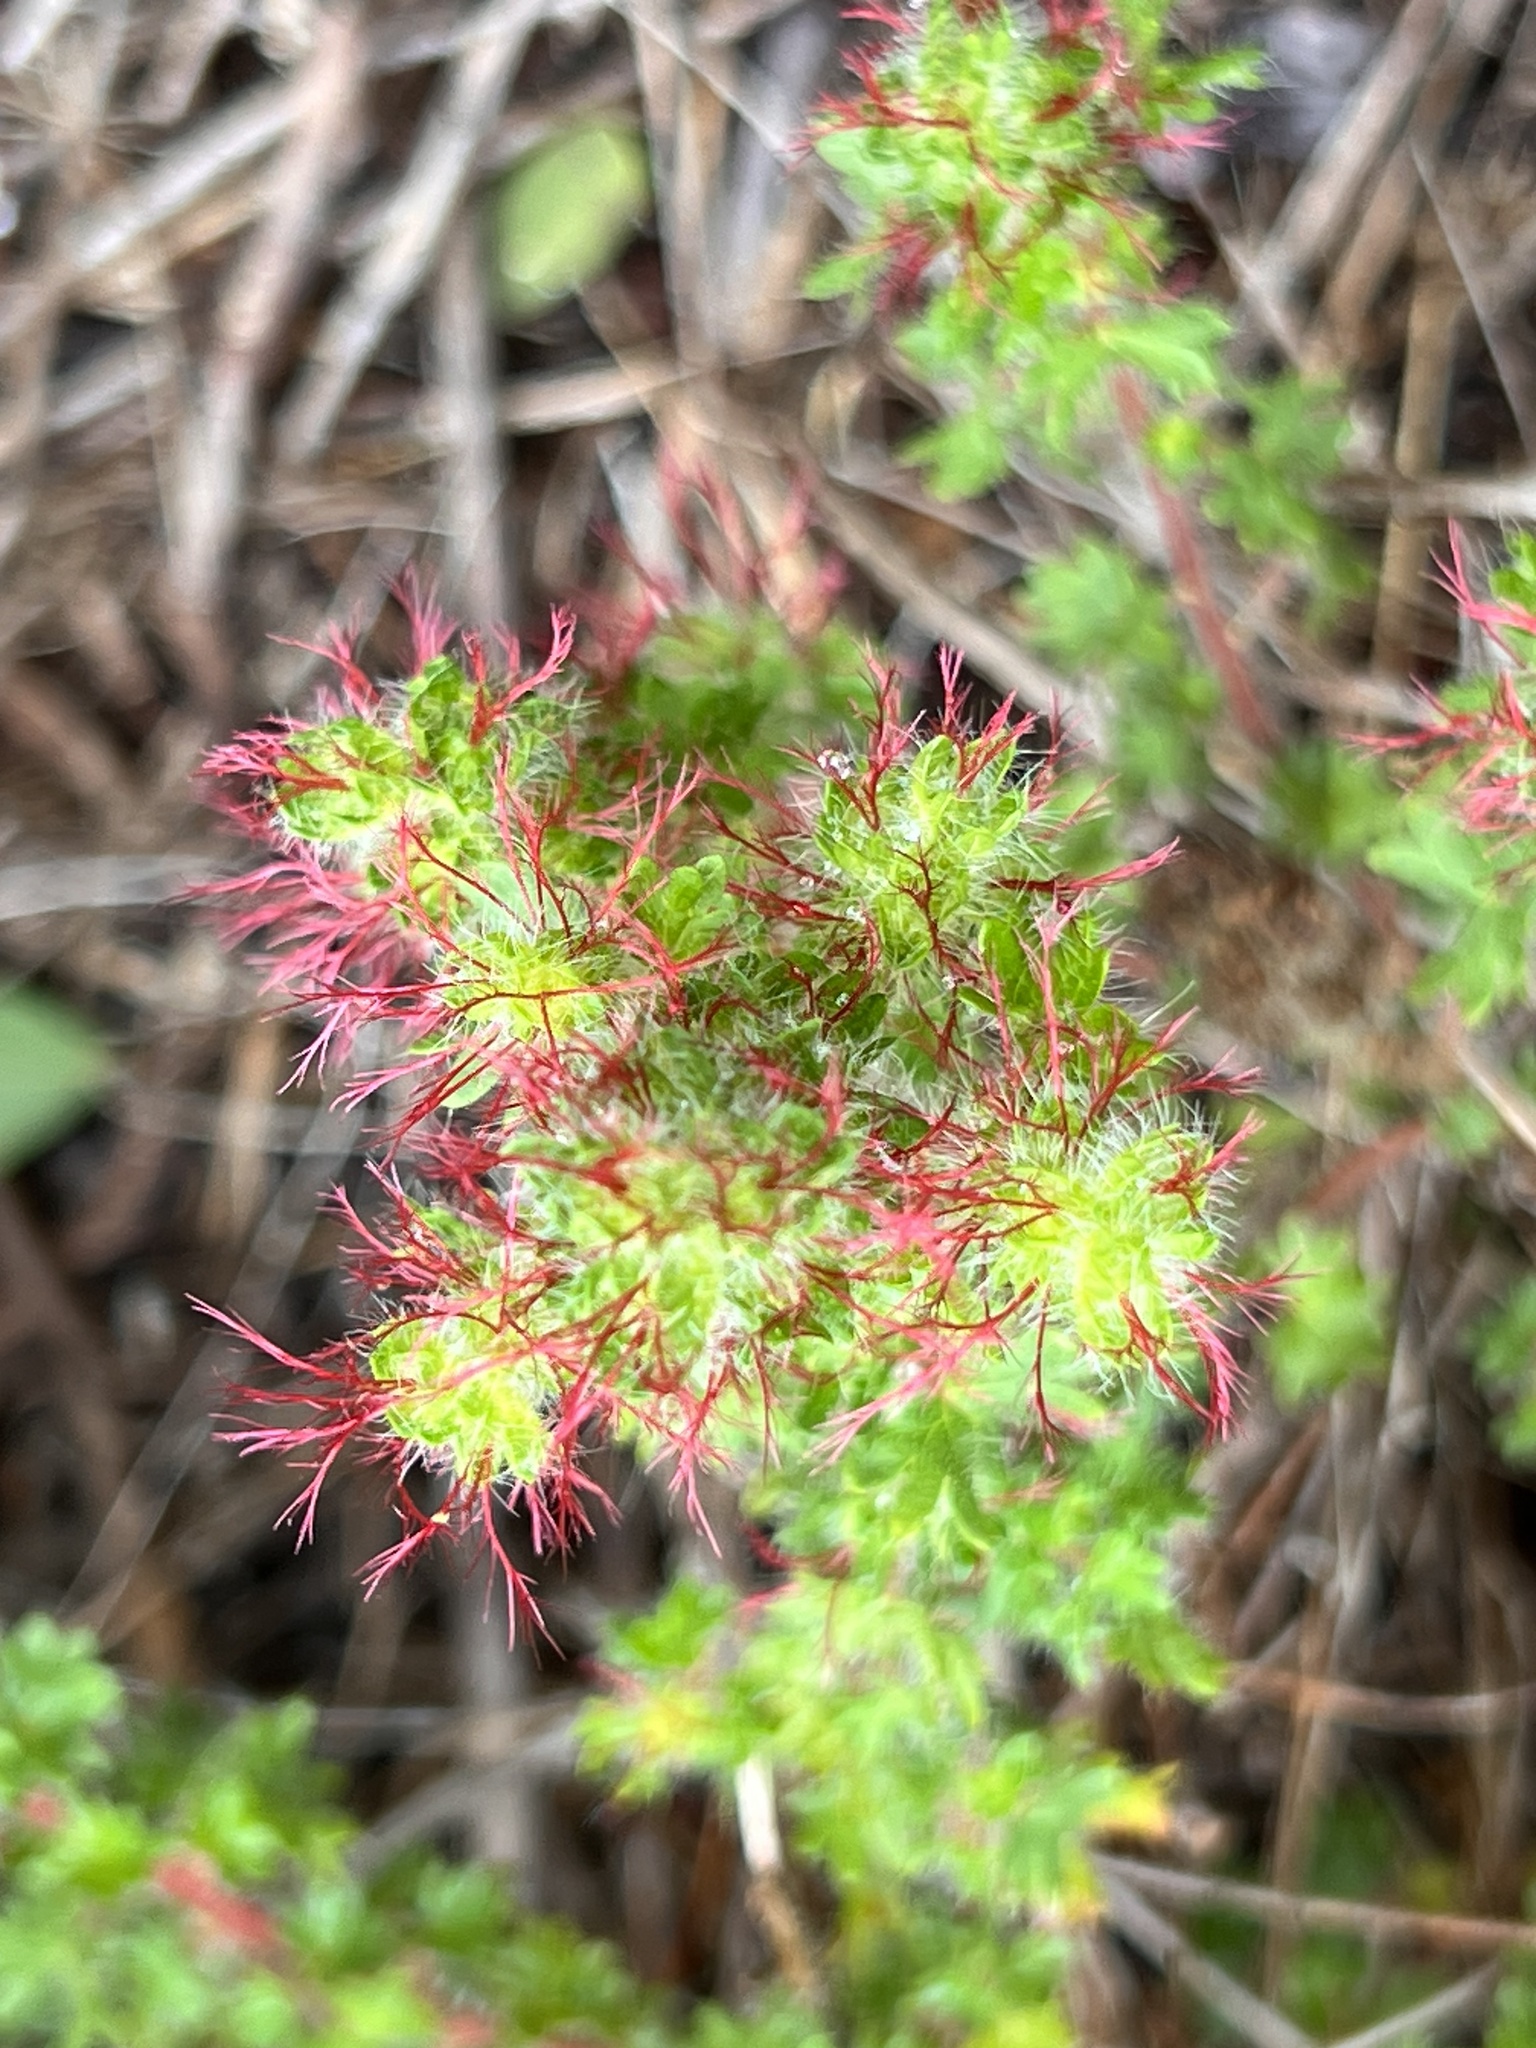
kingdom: Plantae
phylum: Tracheophyta
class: Magnoliopsida
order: Malpighiales
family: Euphorbiaceae
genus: Acalypha
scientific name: Acalypha radians
